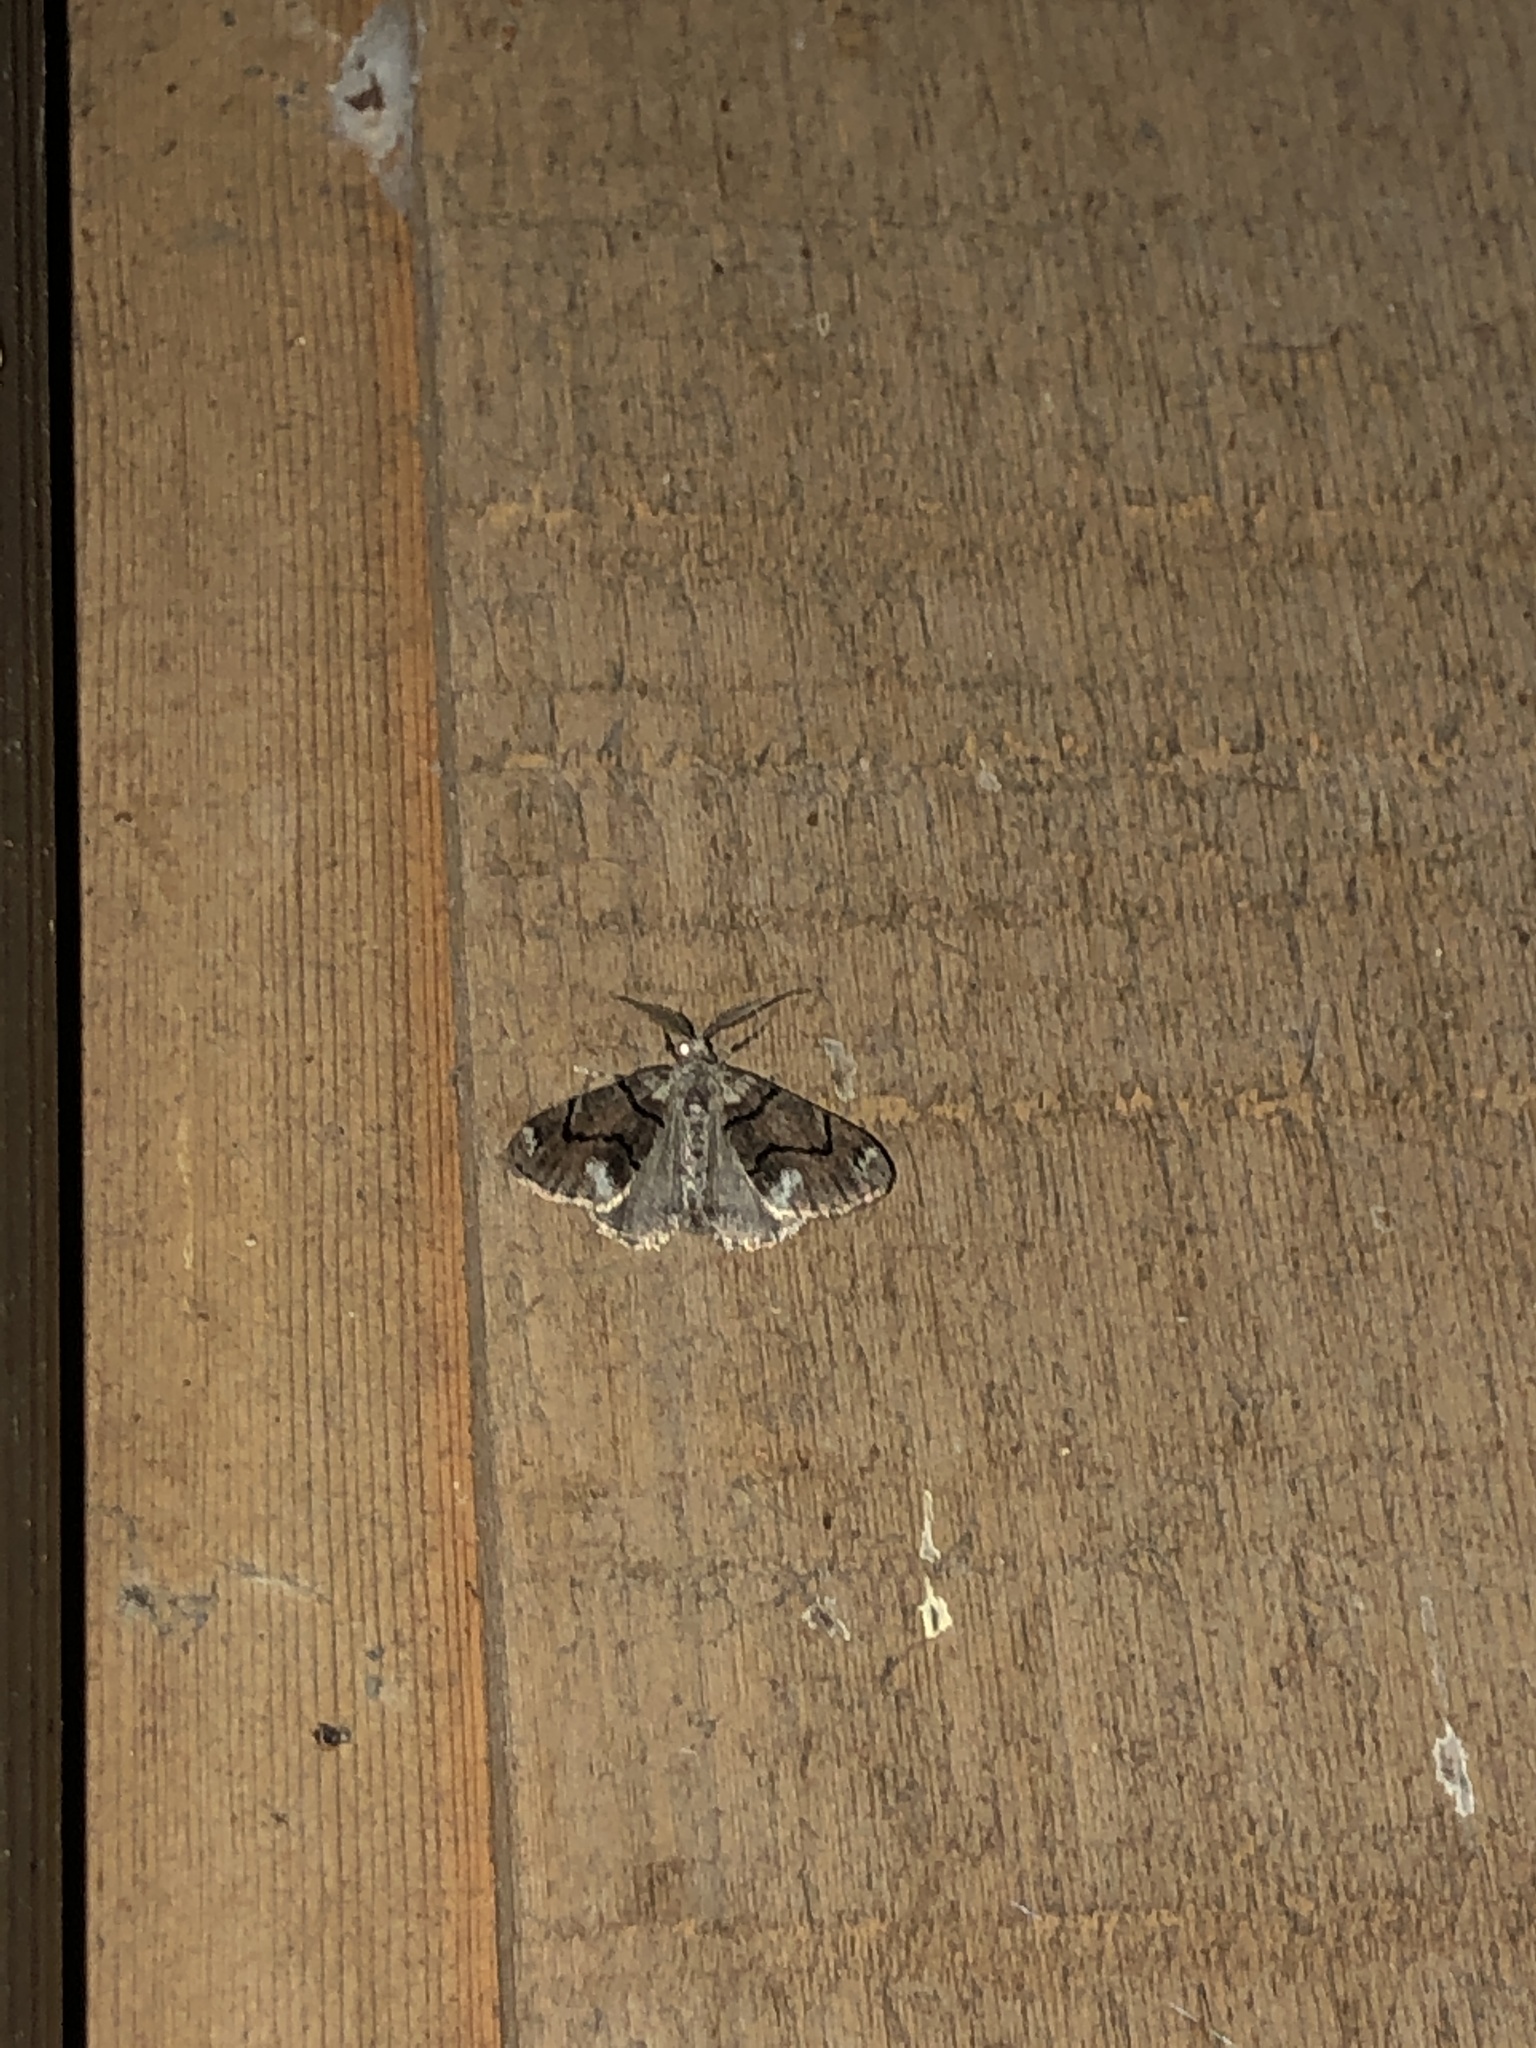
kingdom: Animalia
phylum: Arthropoda
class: Insecta
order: Lepidoptera
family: Geometridae
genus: Gabriola
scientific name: Gabriola dyari
